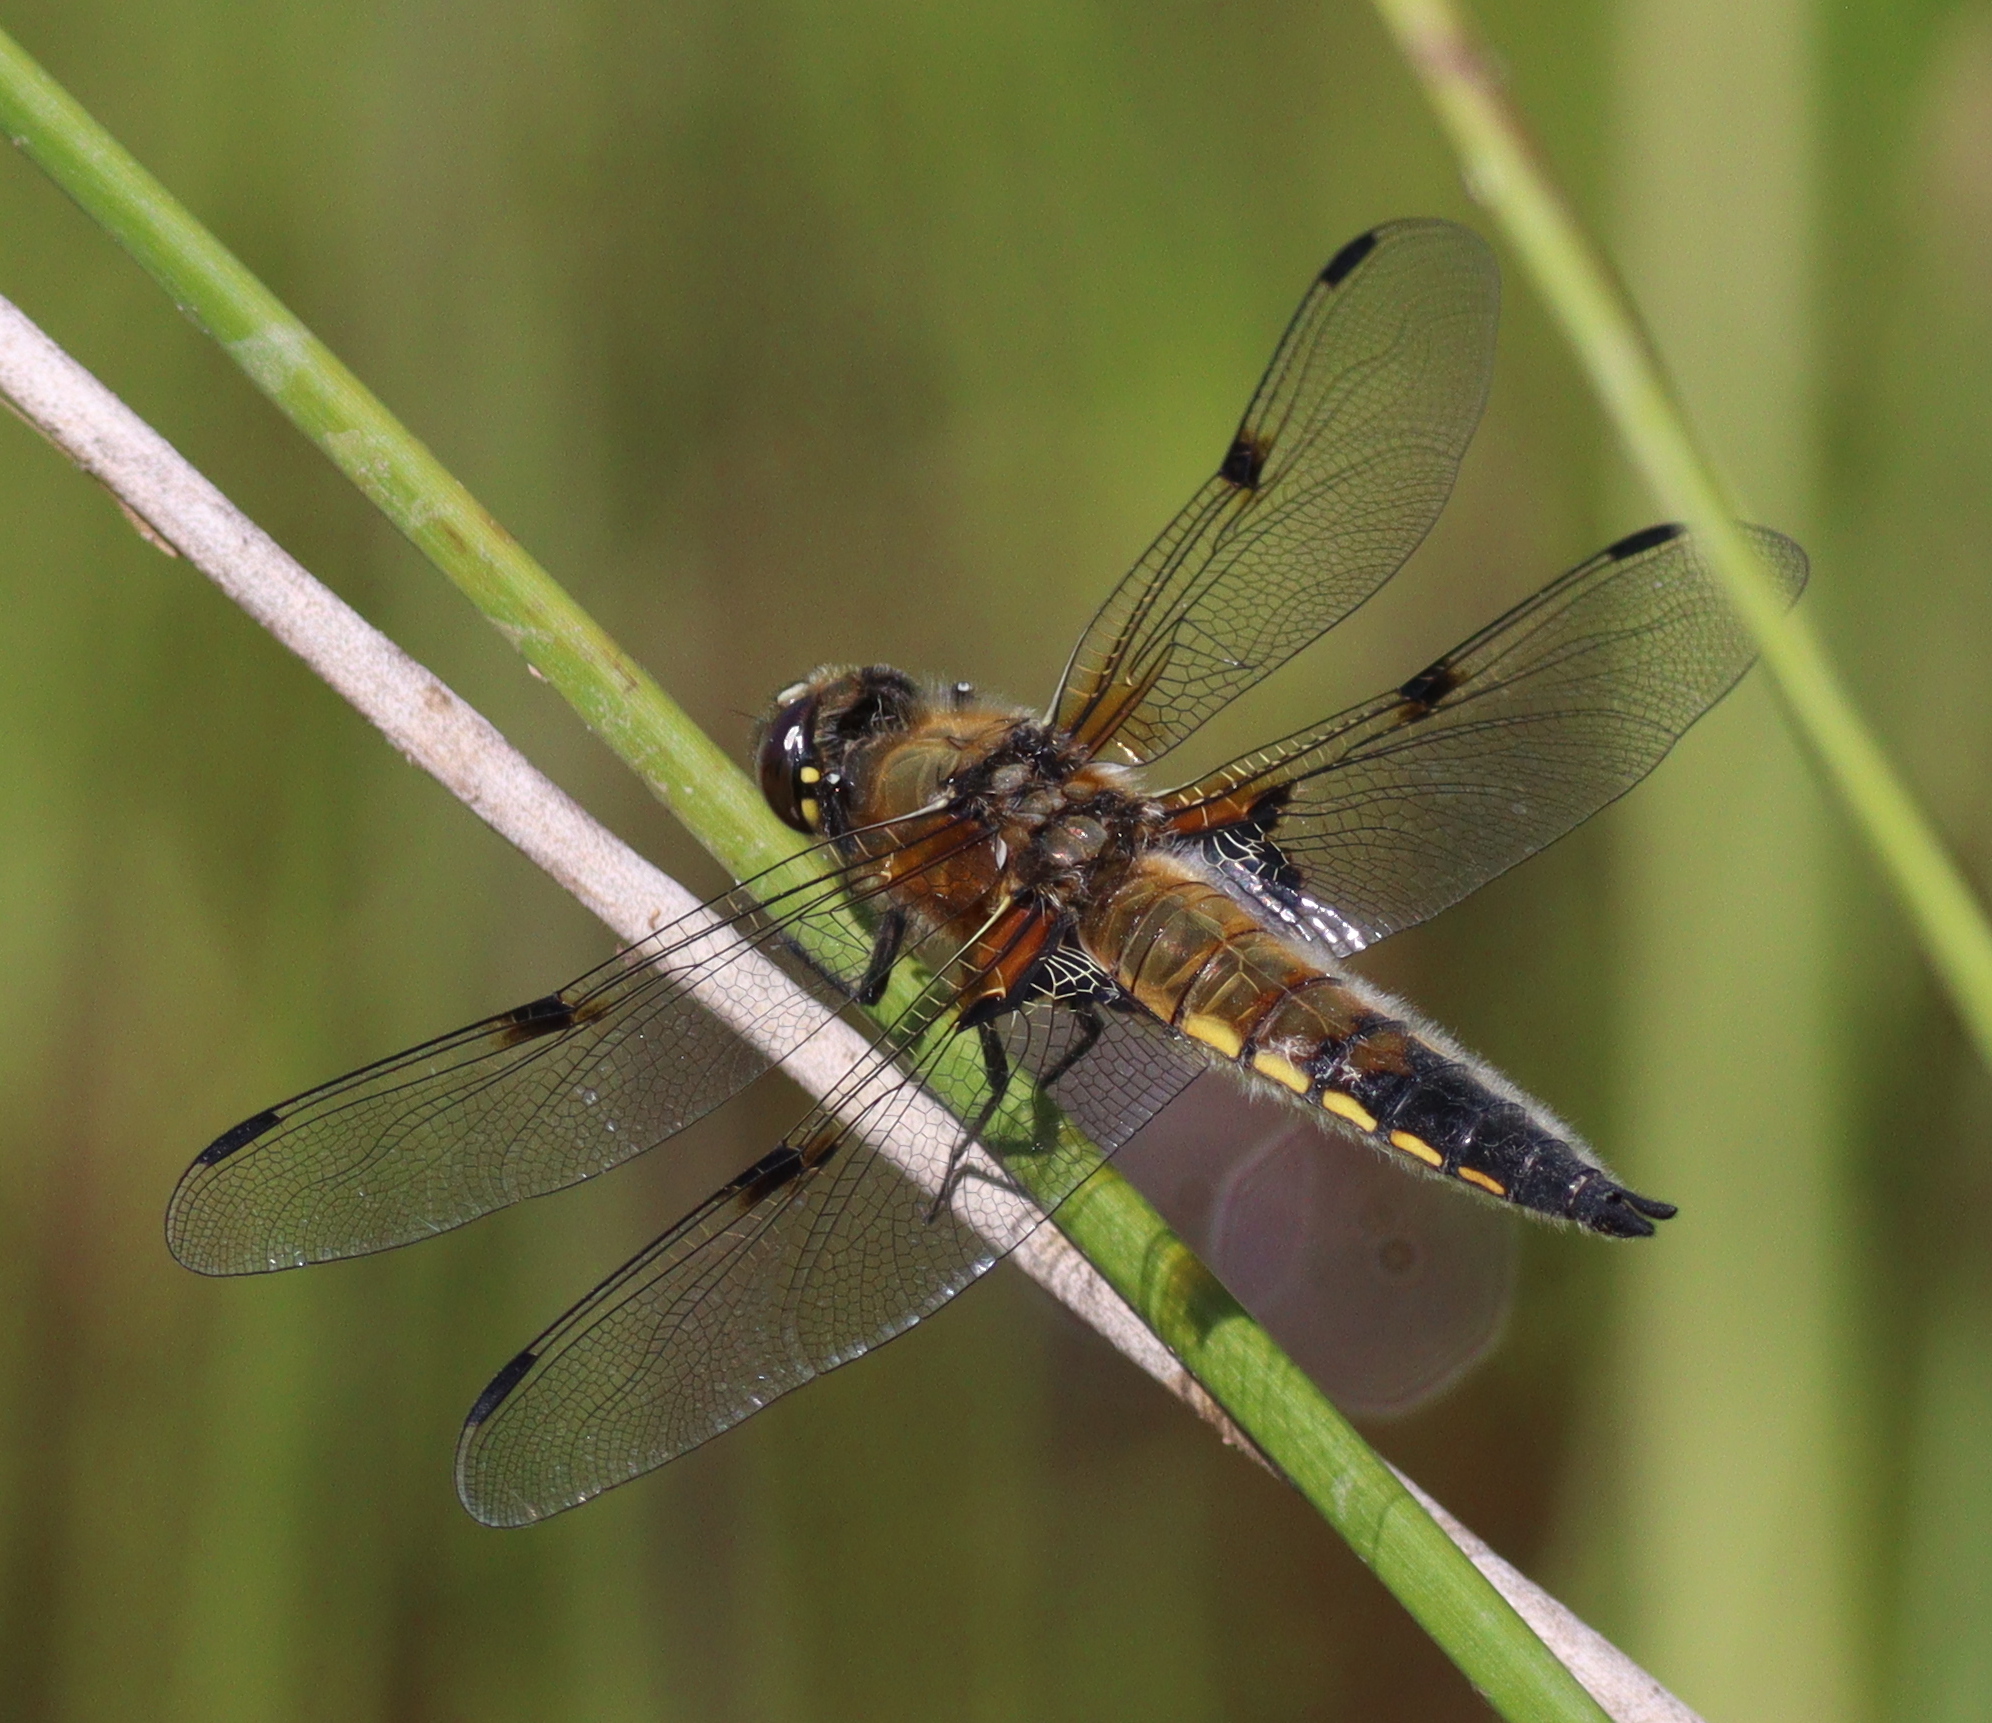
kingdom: Animalia
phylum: Arthropoda
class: Insecta
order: Odonata
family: Libellulidae
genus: Libellula
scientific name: Libellula quadrimaculata
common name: Four-spotted chaser
